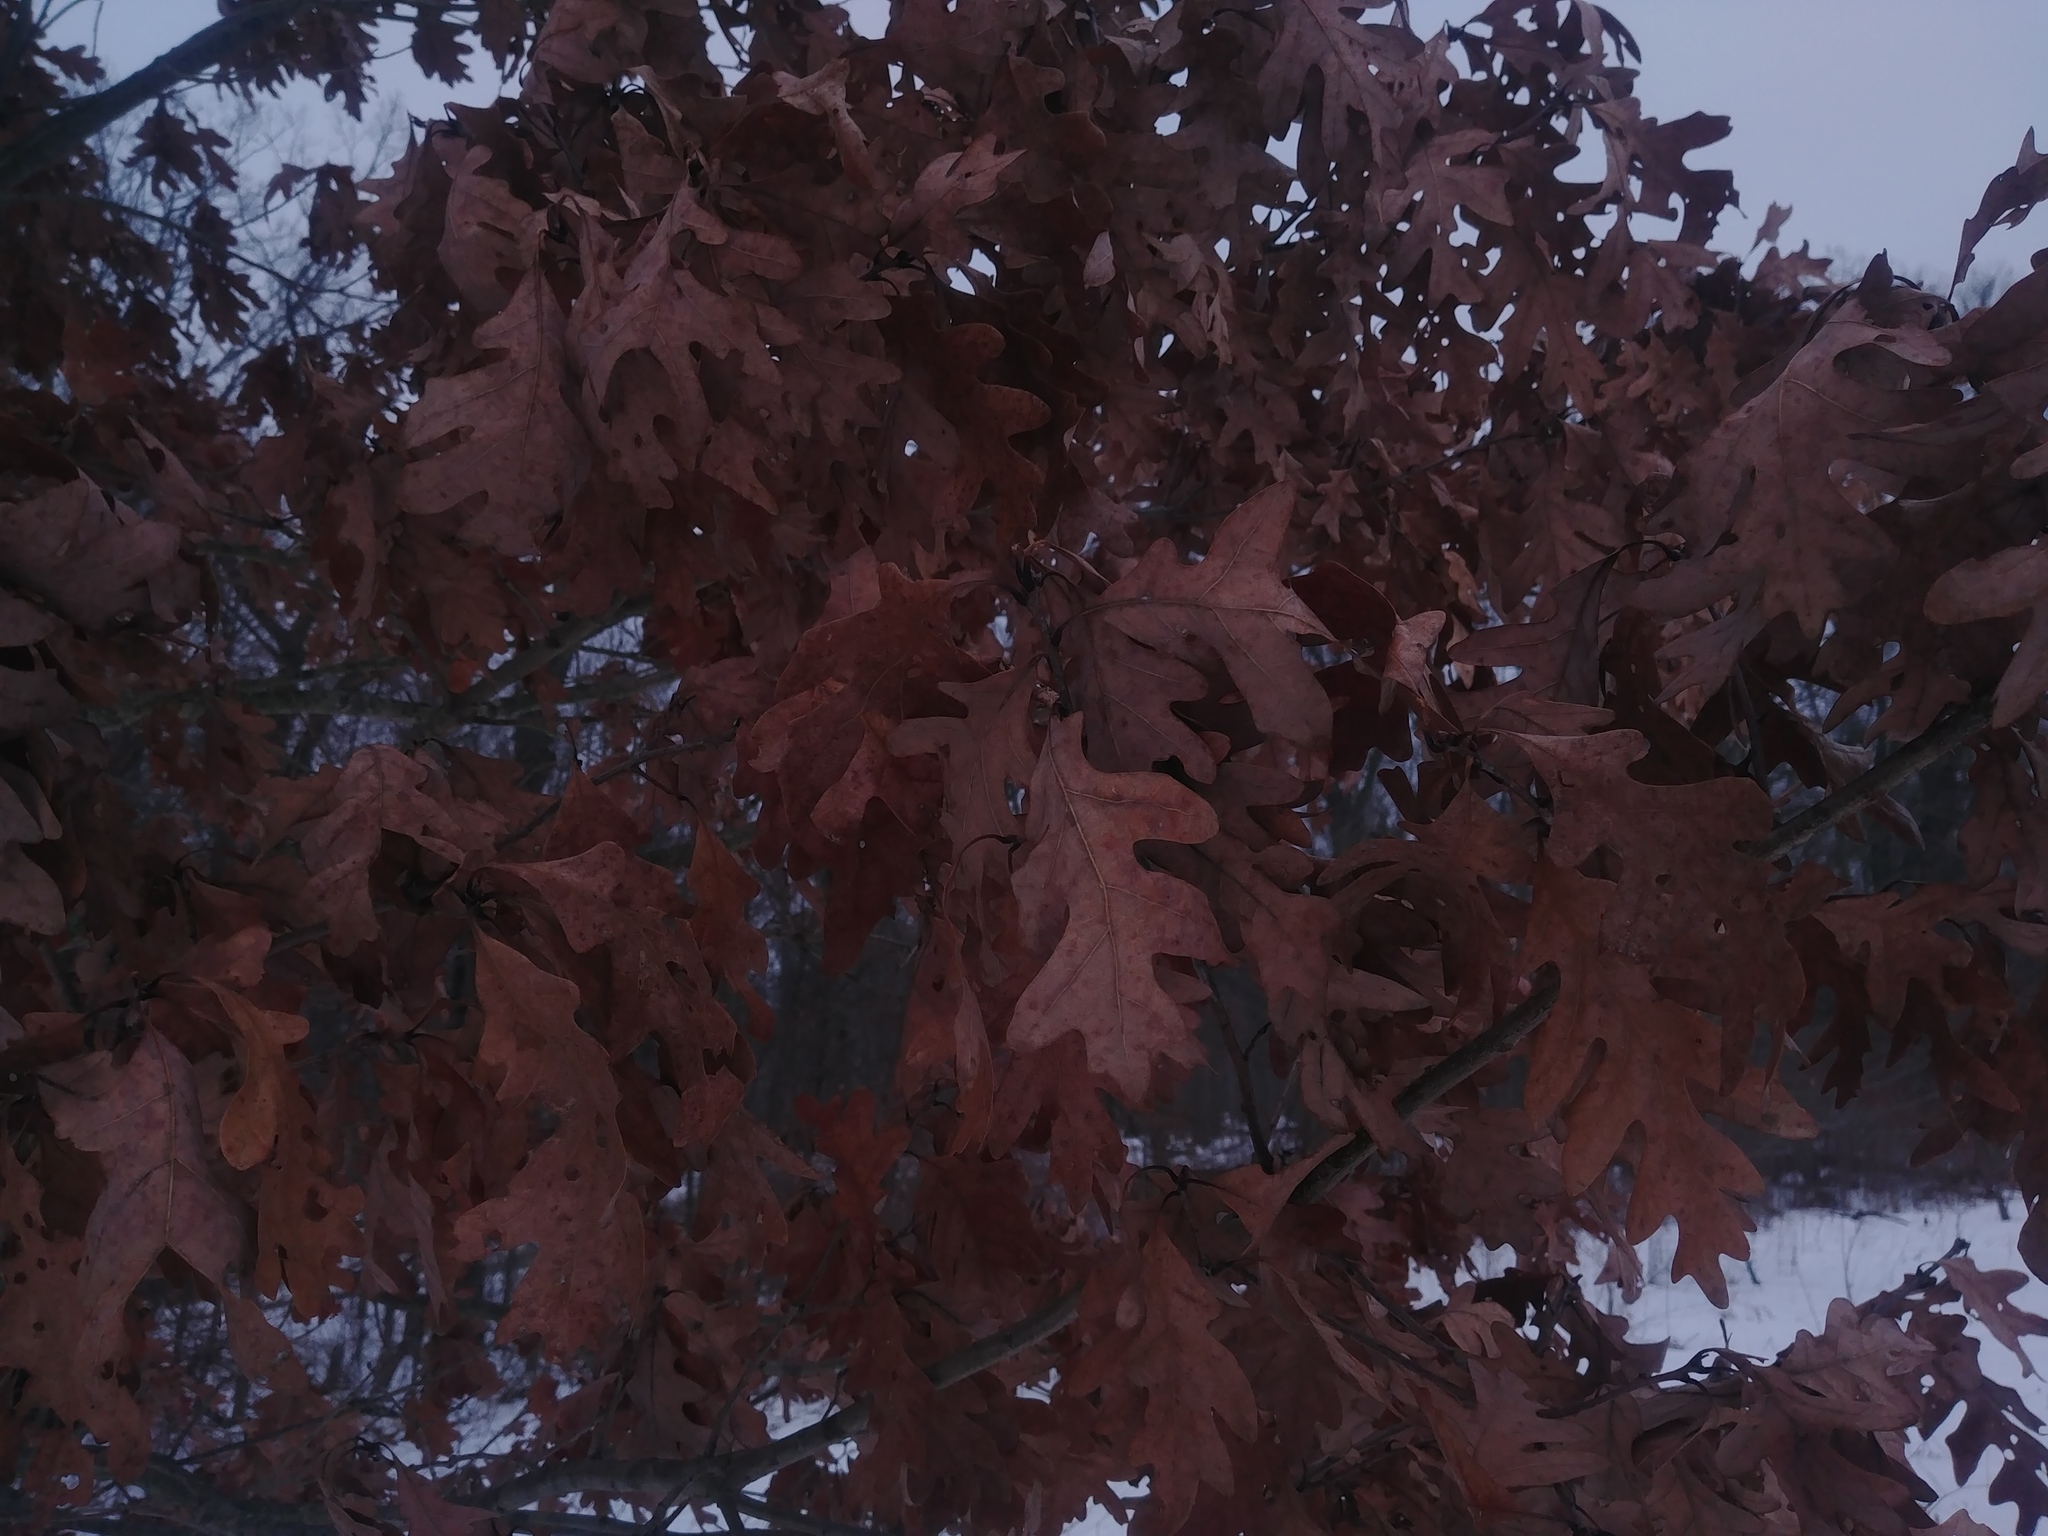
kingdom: Plantae
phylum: Tracheophyta
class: Magnoliopsida
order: Fagales
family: Fagaceae
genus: Quercus
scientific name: Quercus alba
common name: White oak
